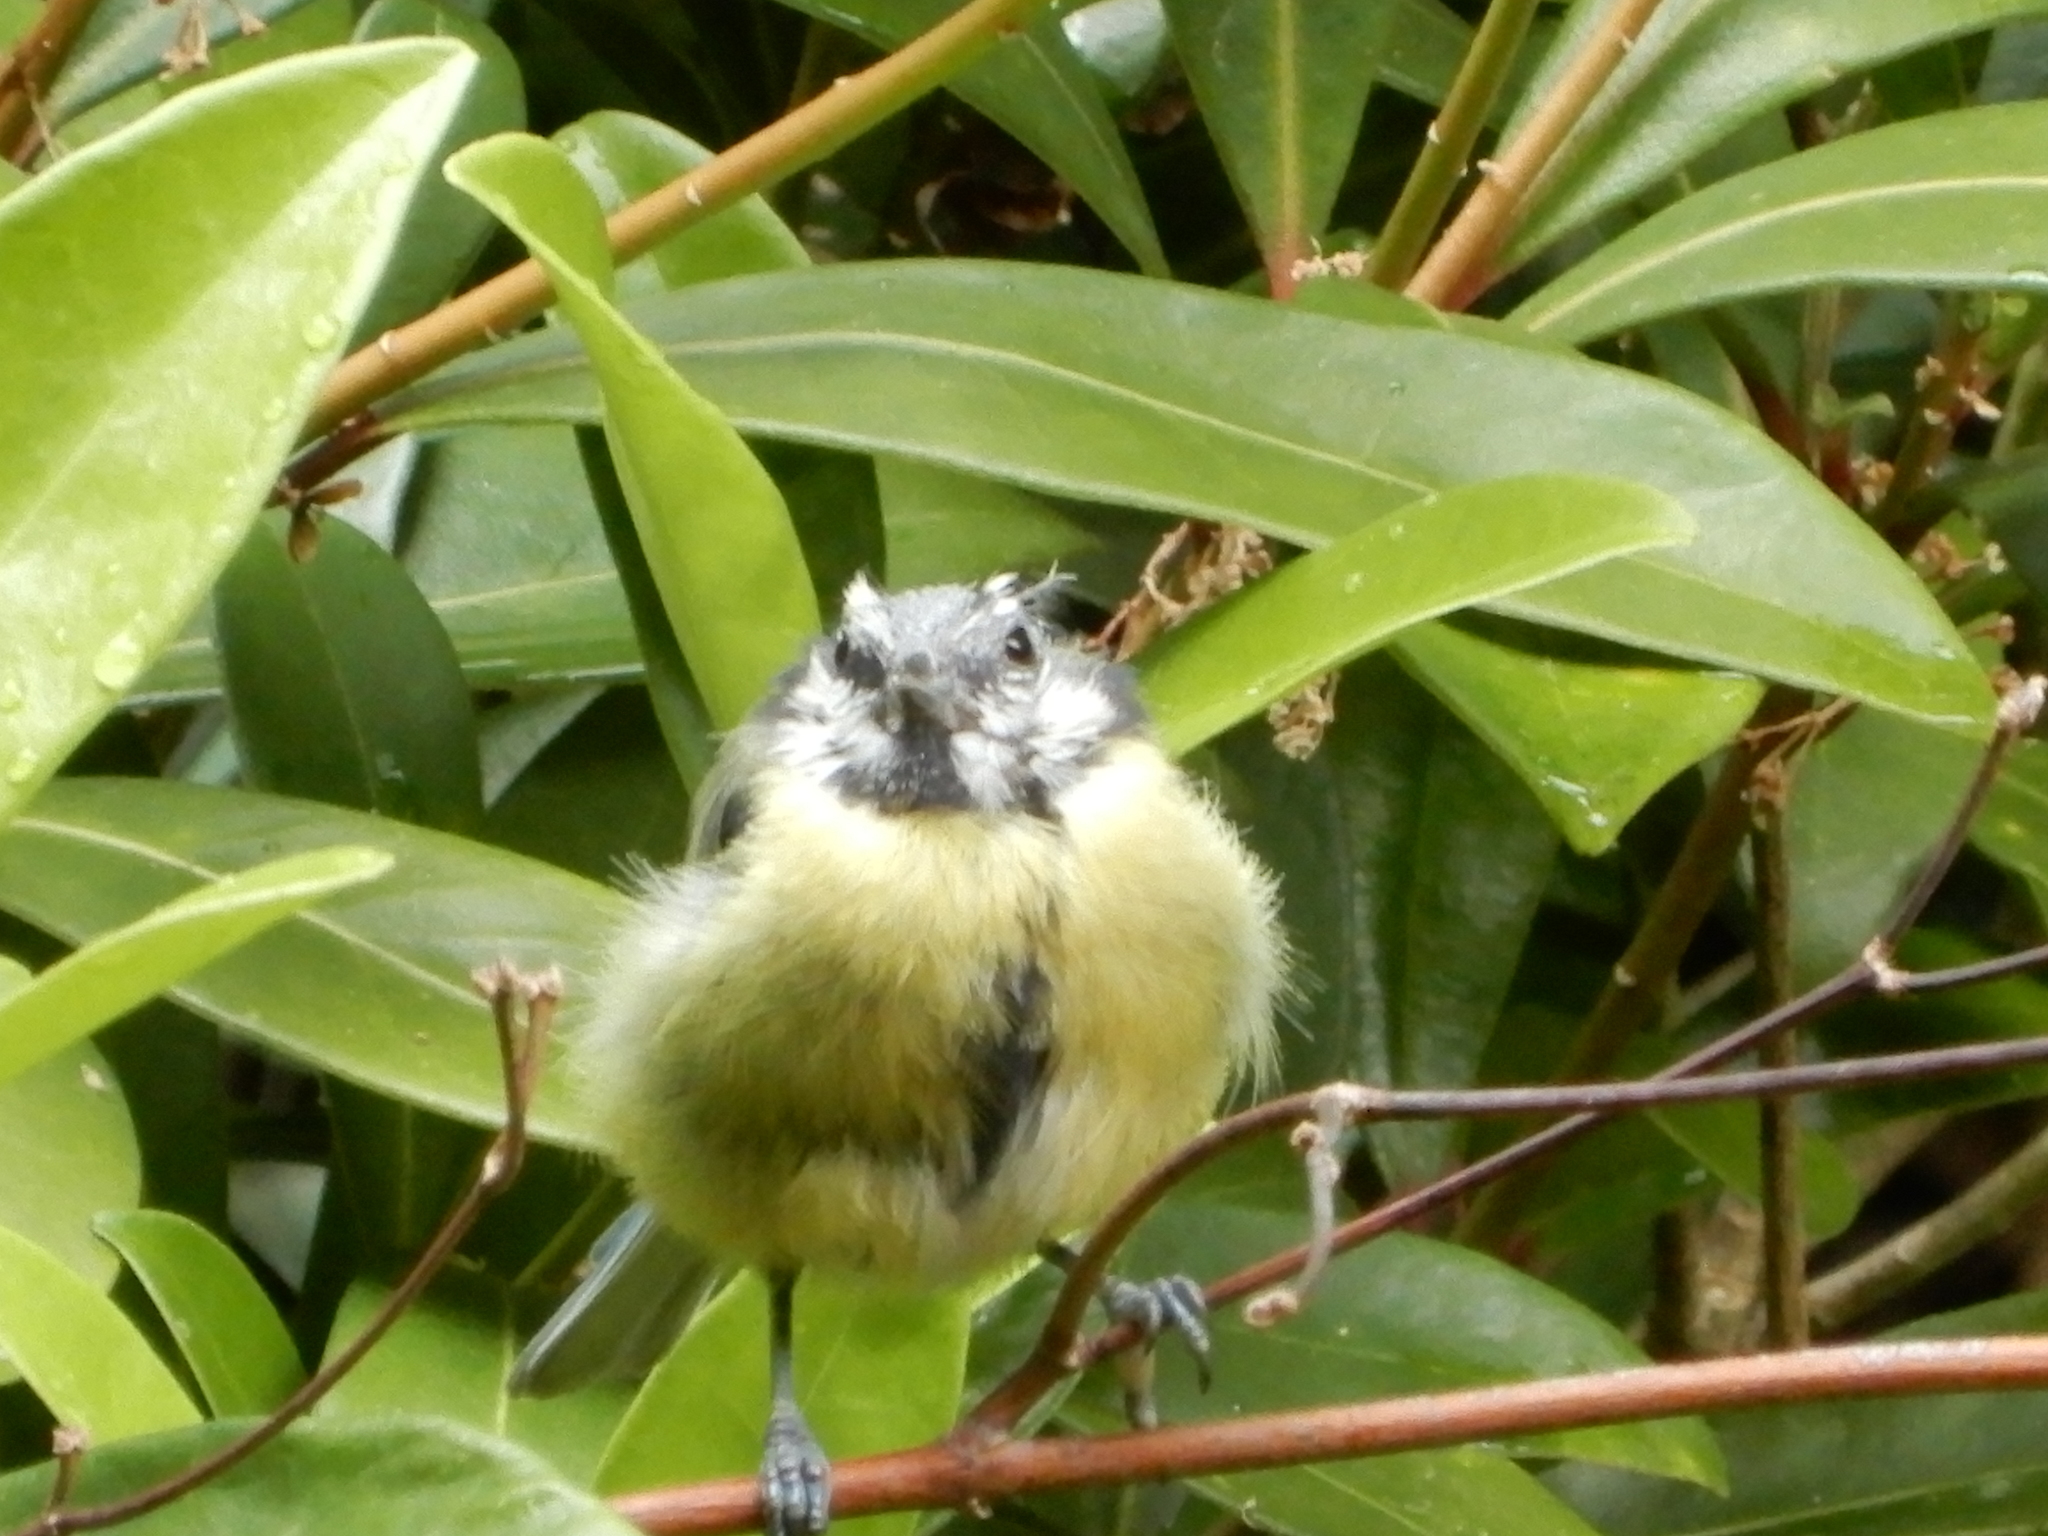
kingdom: Animalia
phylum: Chordata
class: Aves
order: Passeriformes
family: Paridae
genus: Cyanistes
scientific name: Cyanistes caeruleus
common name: Eurasian blue tit
